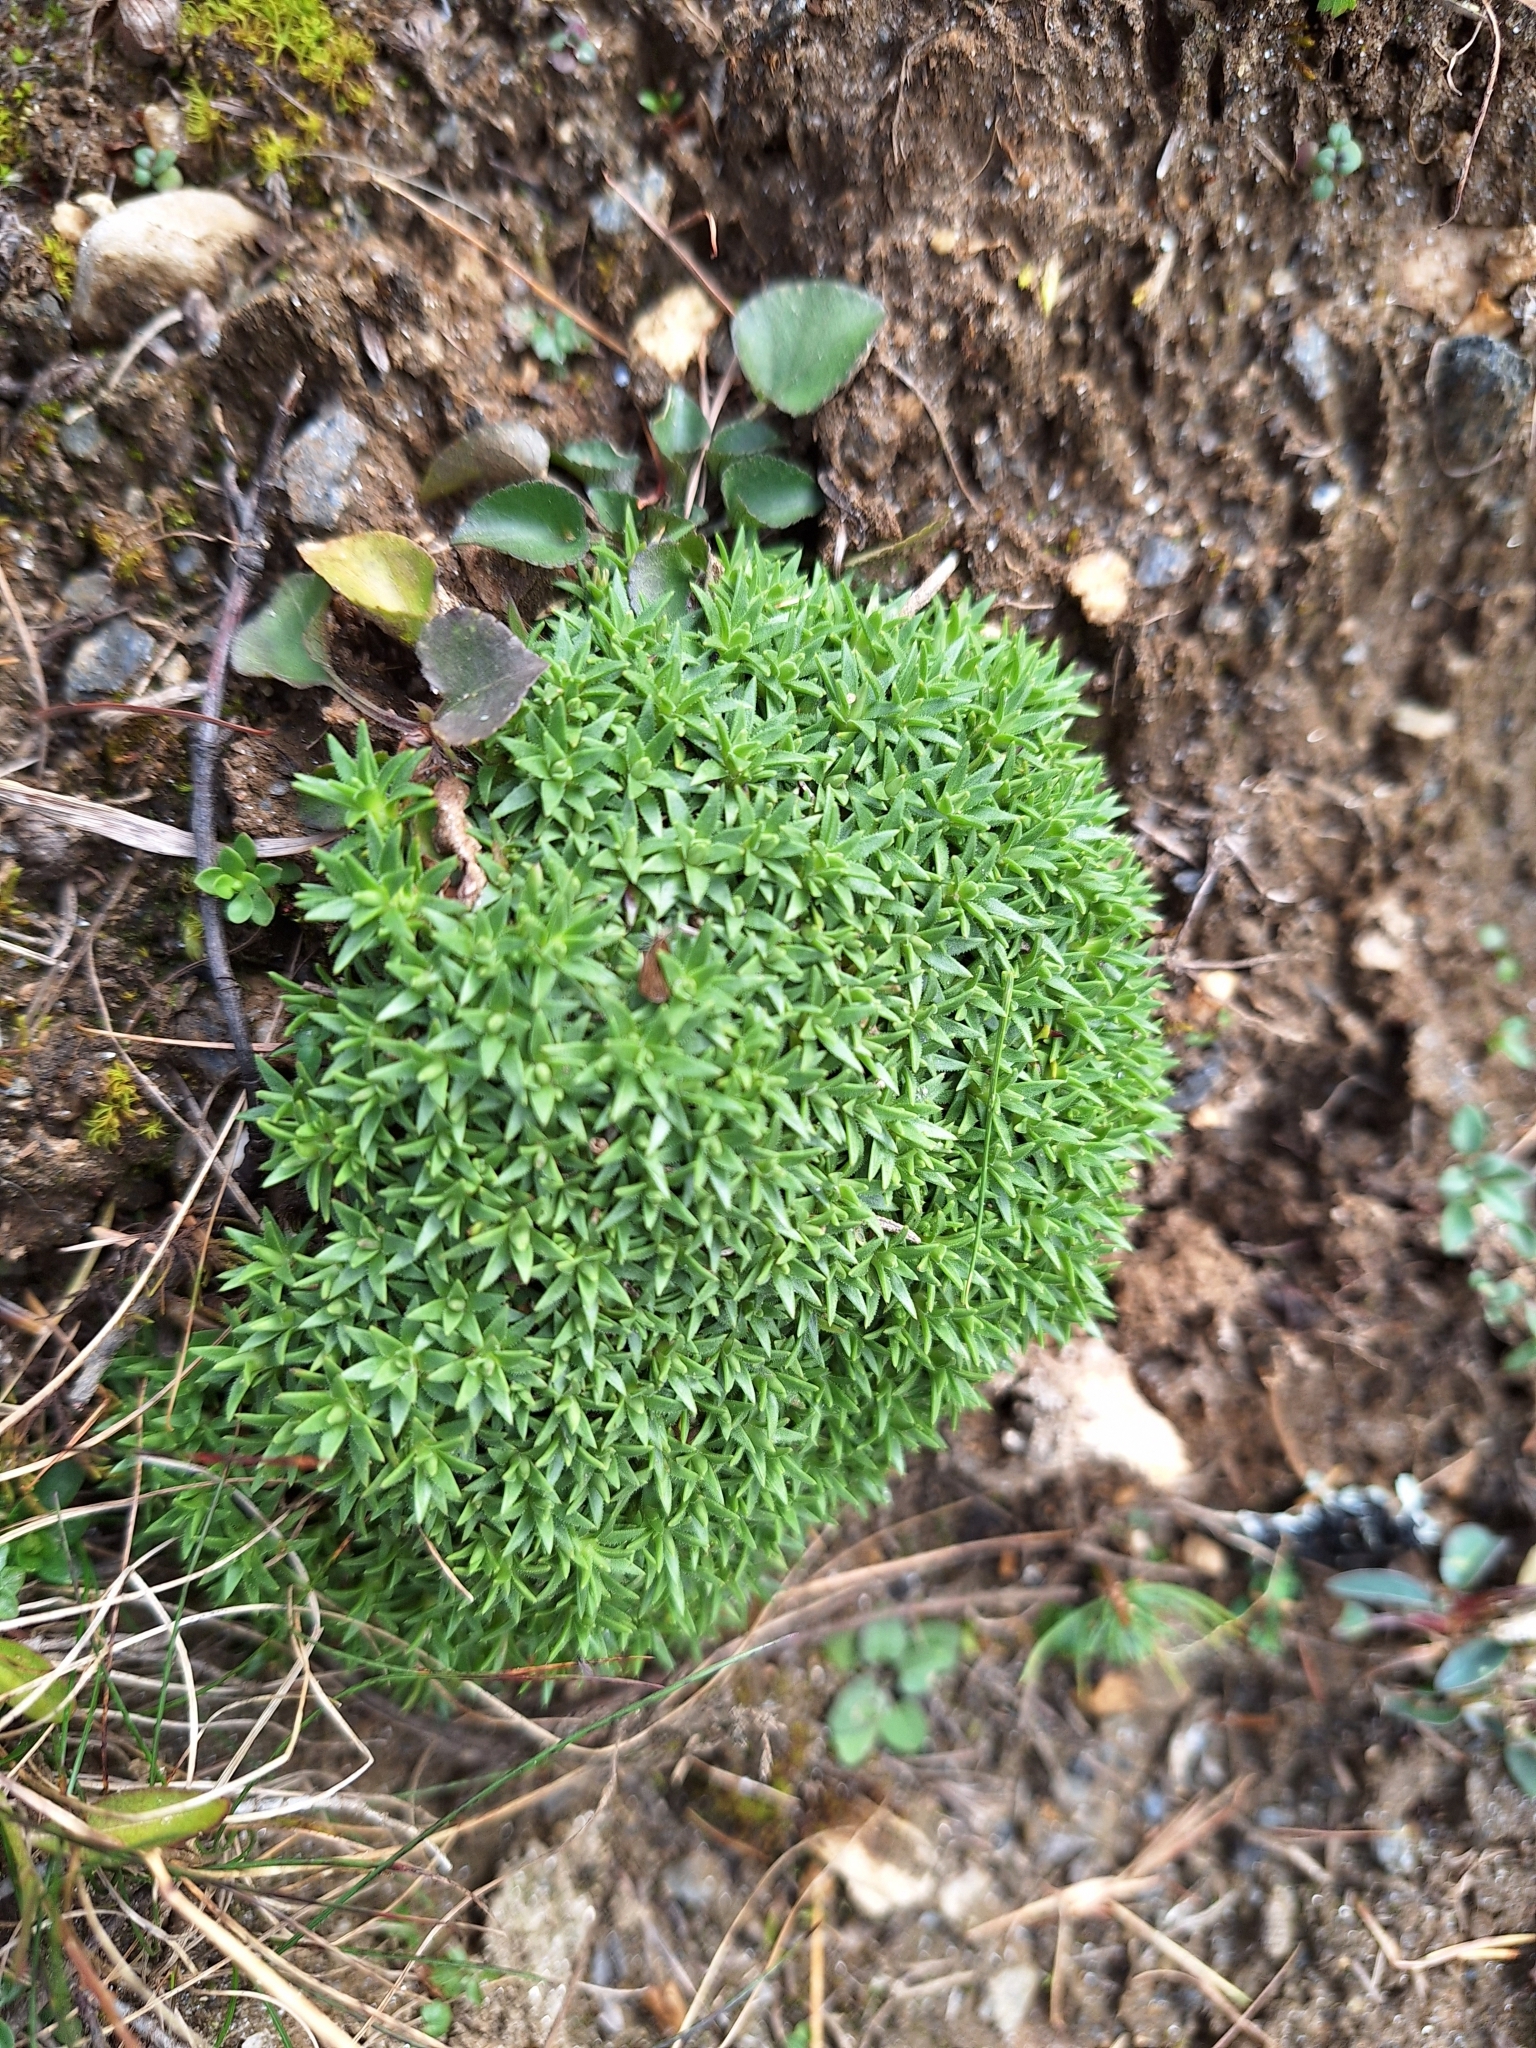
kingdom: Plantae
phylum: Tracheophyta
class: Magnoliopsida
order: Caryophyllales
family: Caryophyllaceae
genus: Silene
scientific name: Silene acaulis
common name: Moss campion
